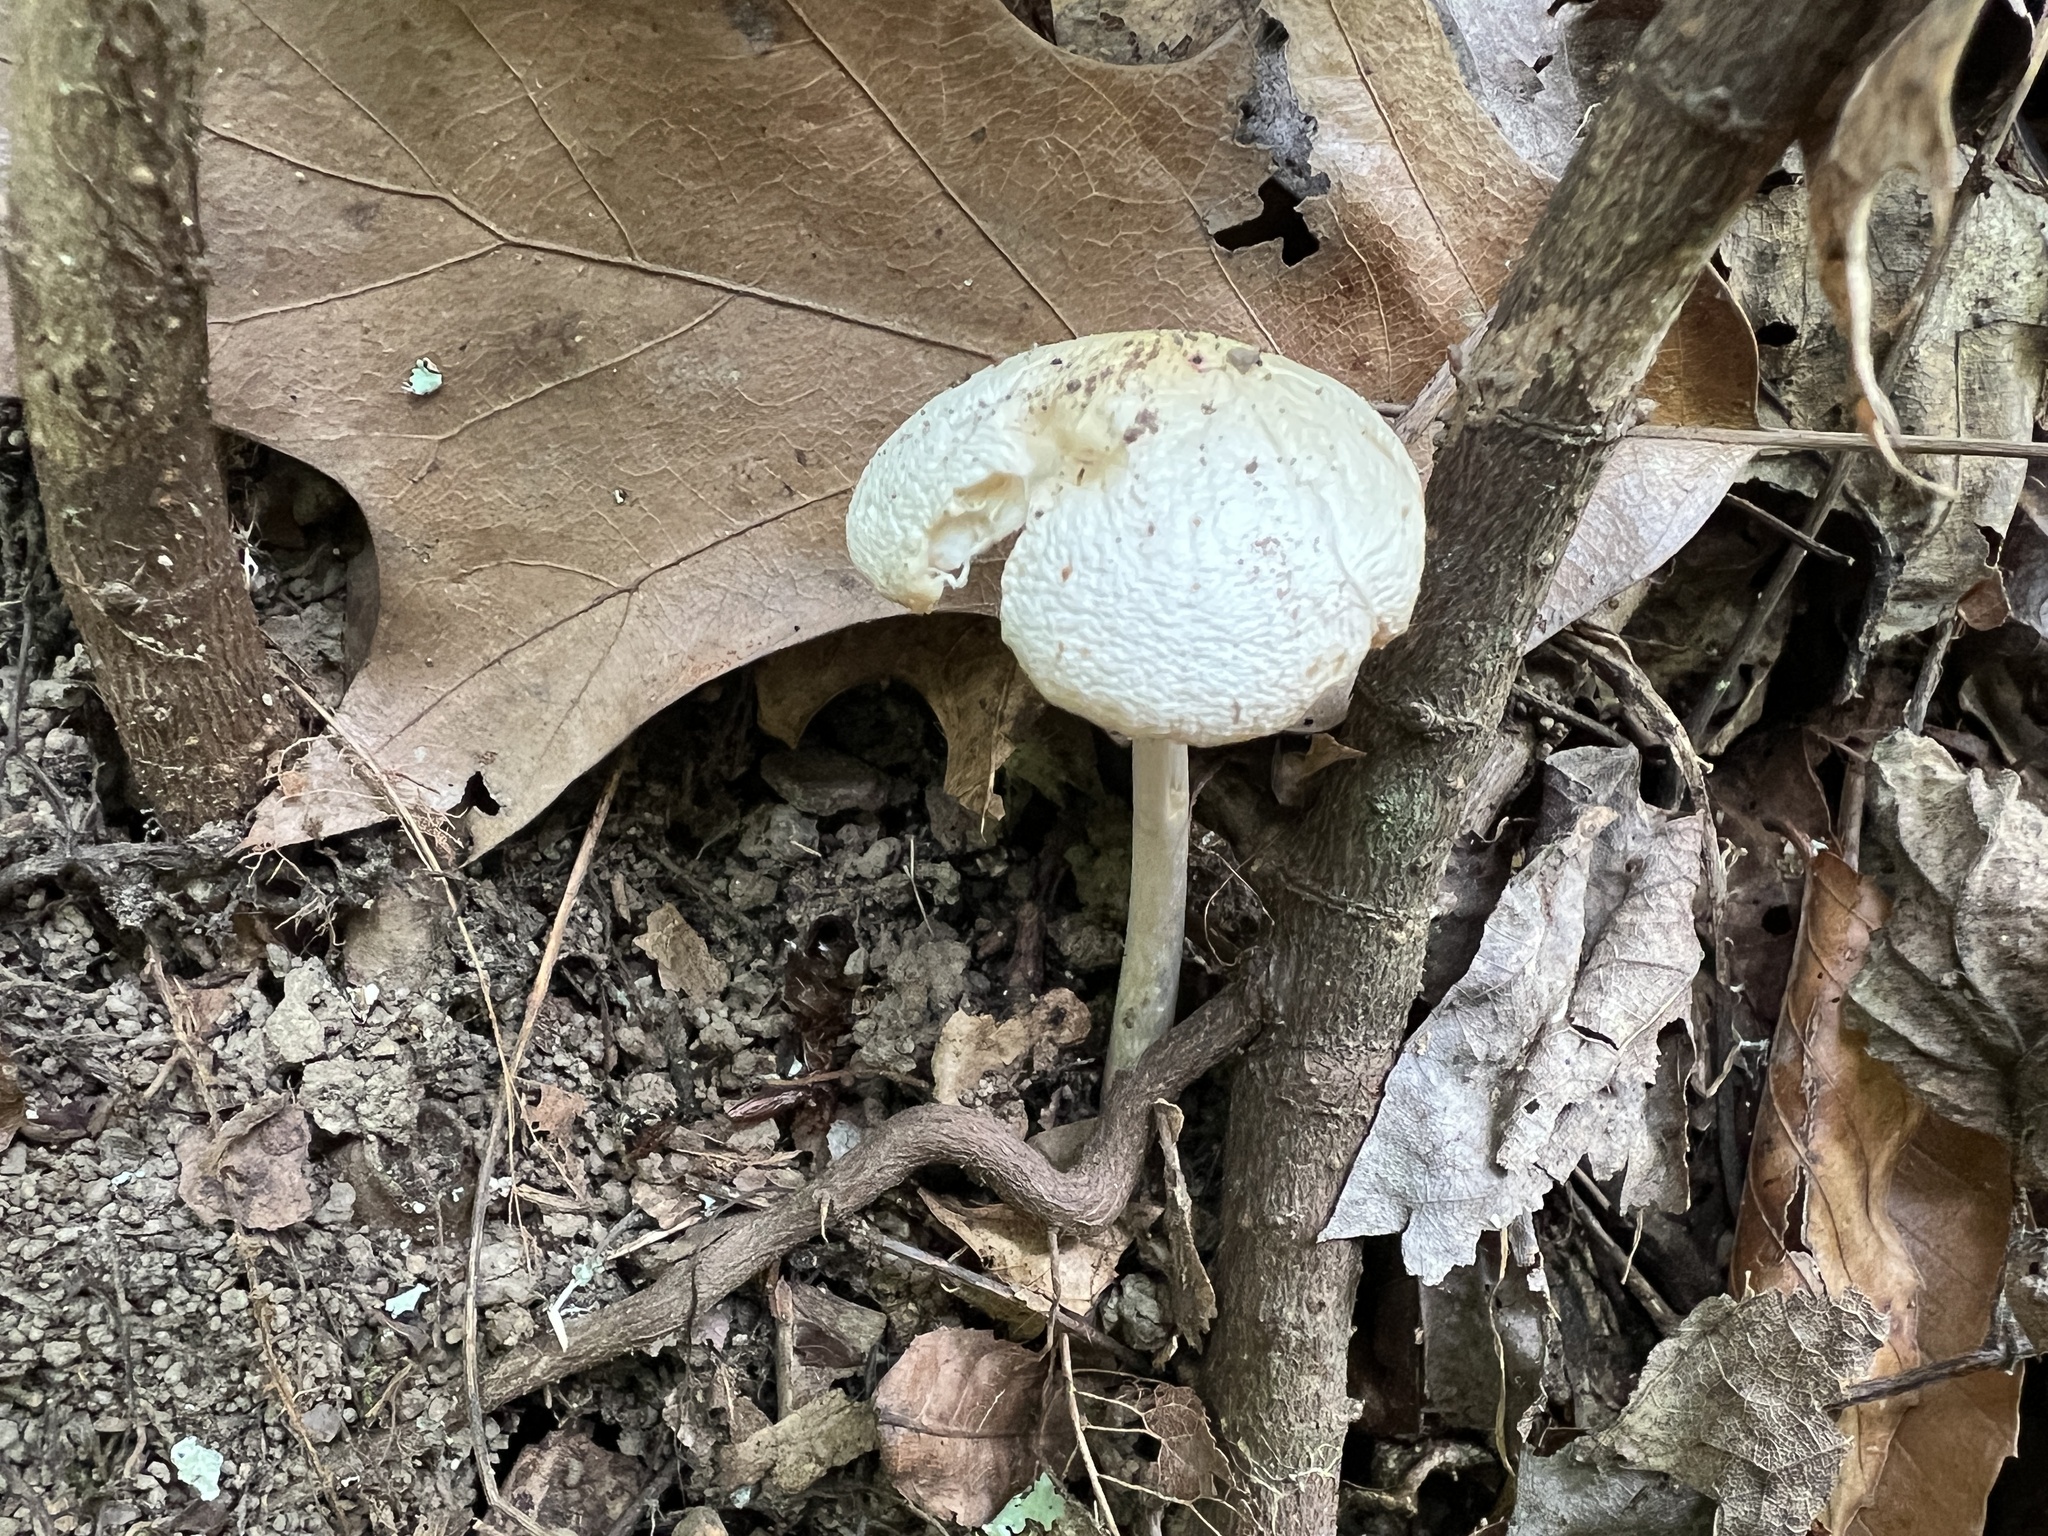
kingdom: Fungi
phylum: Basidiomycota
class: Agaricomycetes
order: Agaricales
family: Amanitaceae
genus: Amanita
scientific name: Amanita bisporigera
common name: Eastern north american destroying angel
